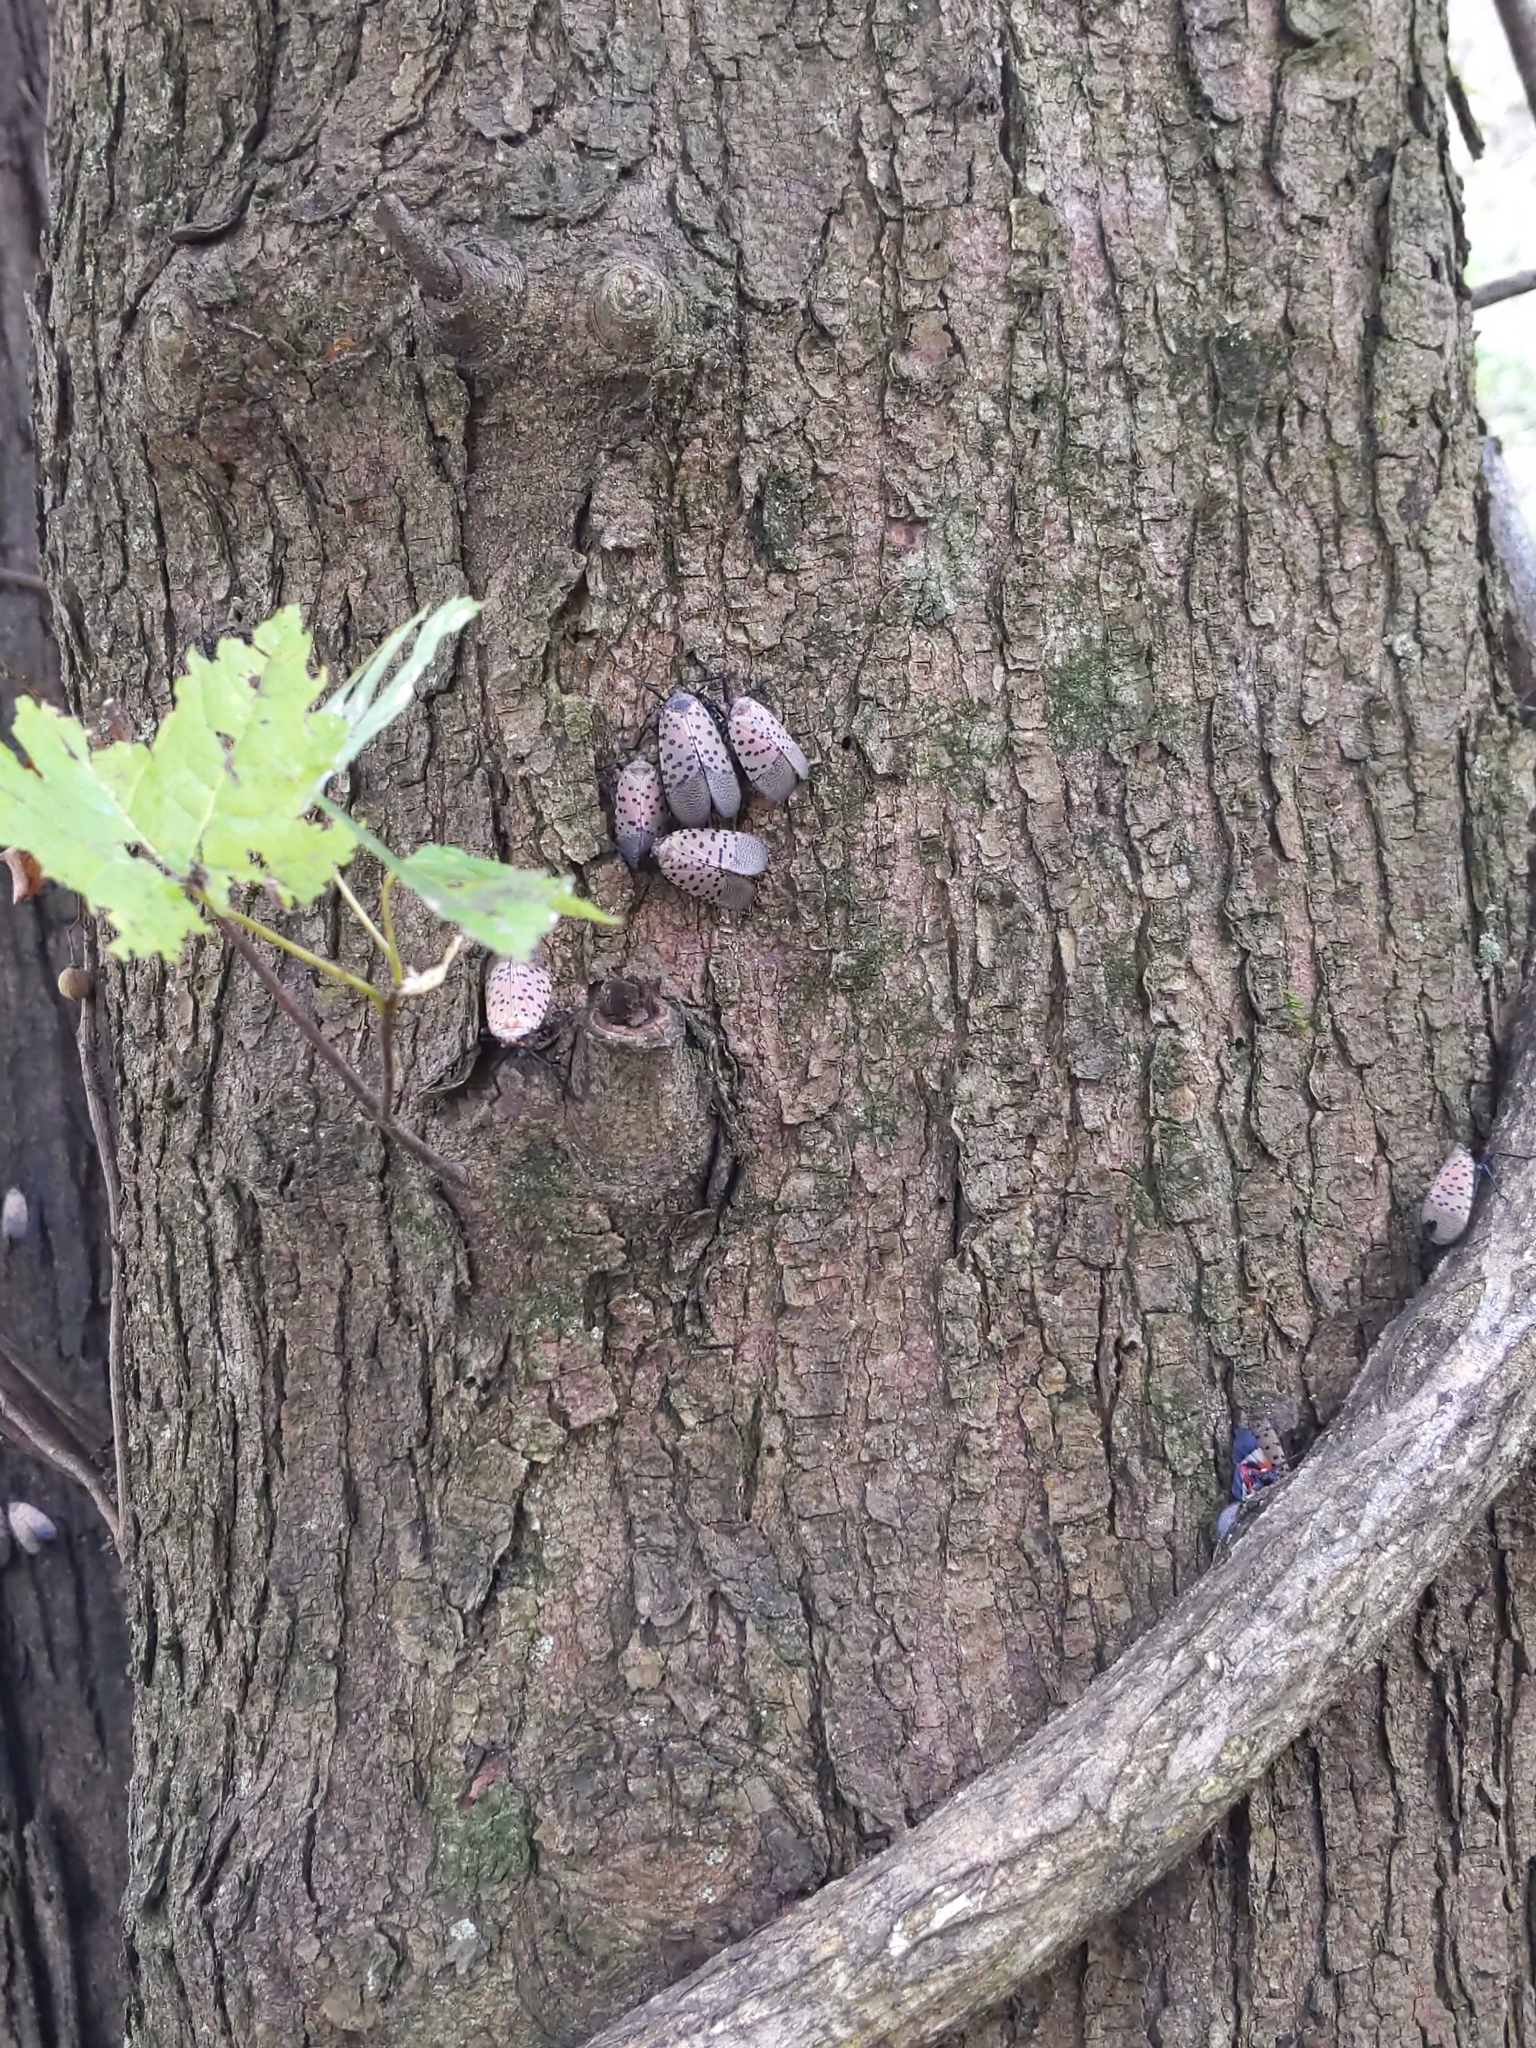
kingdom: Animalia
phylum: Arthropoda
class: Insecta
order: Hemiptera
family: Fulgoridae
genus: Lycorma
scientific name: Lycorma delicatula
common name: Spotted lanternfly
